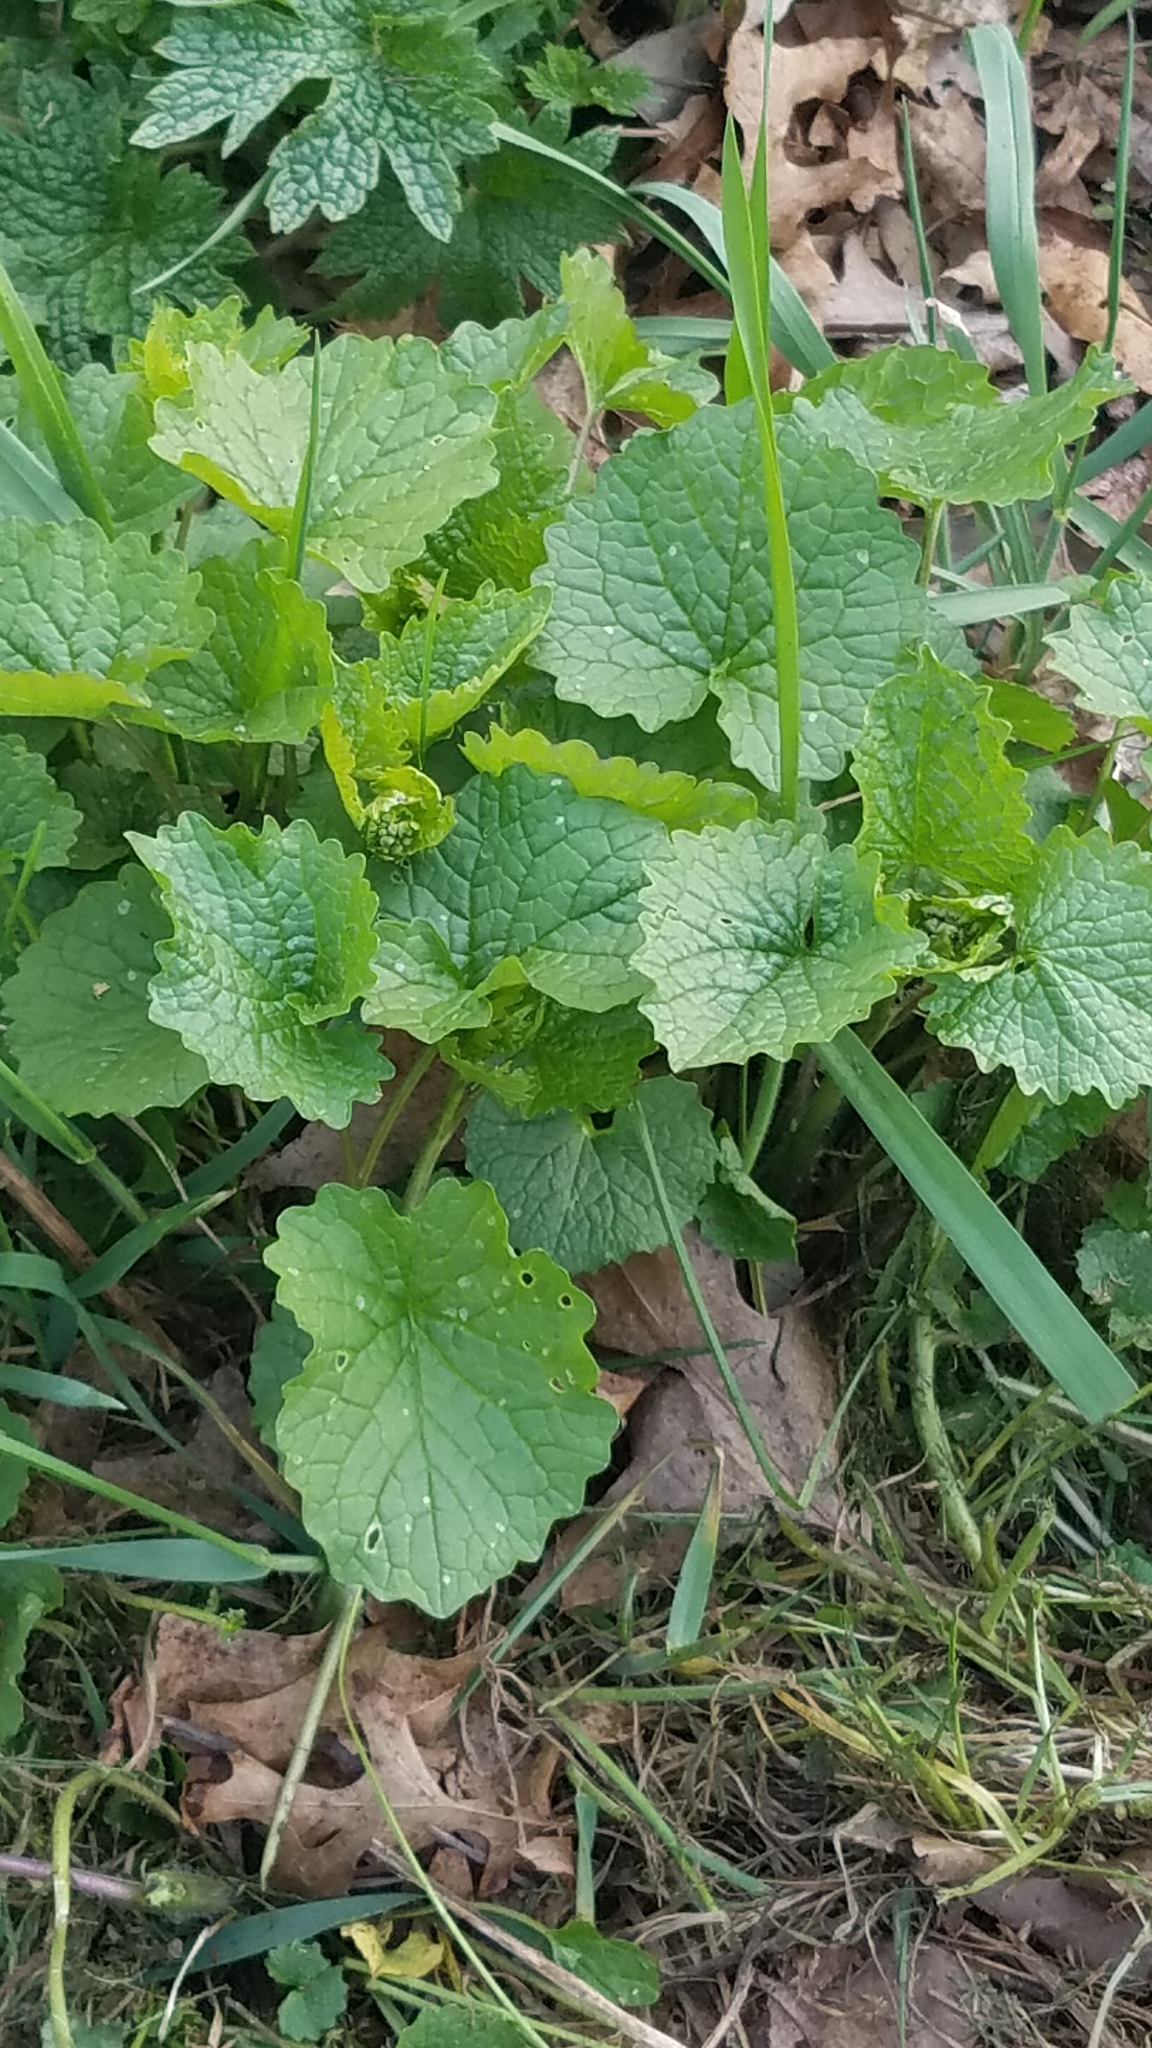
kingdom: Plantae
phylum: Tracheophyta
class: Magnoliopsida
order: Brassicales
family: Brassicaceae
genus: Alliaria
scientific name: Alliaria petiolata
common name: Garlic mustard
